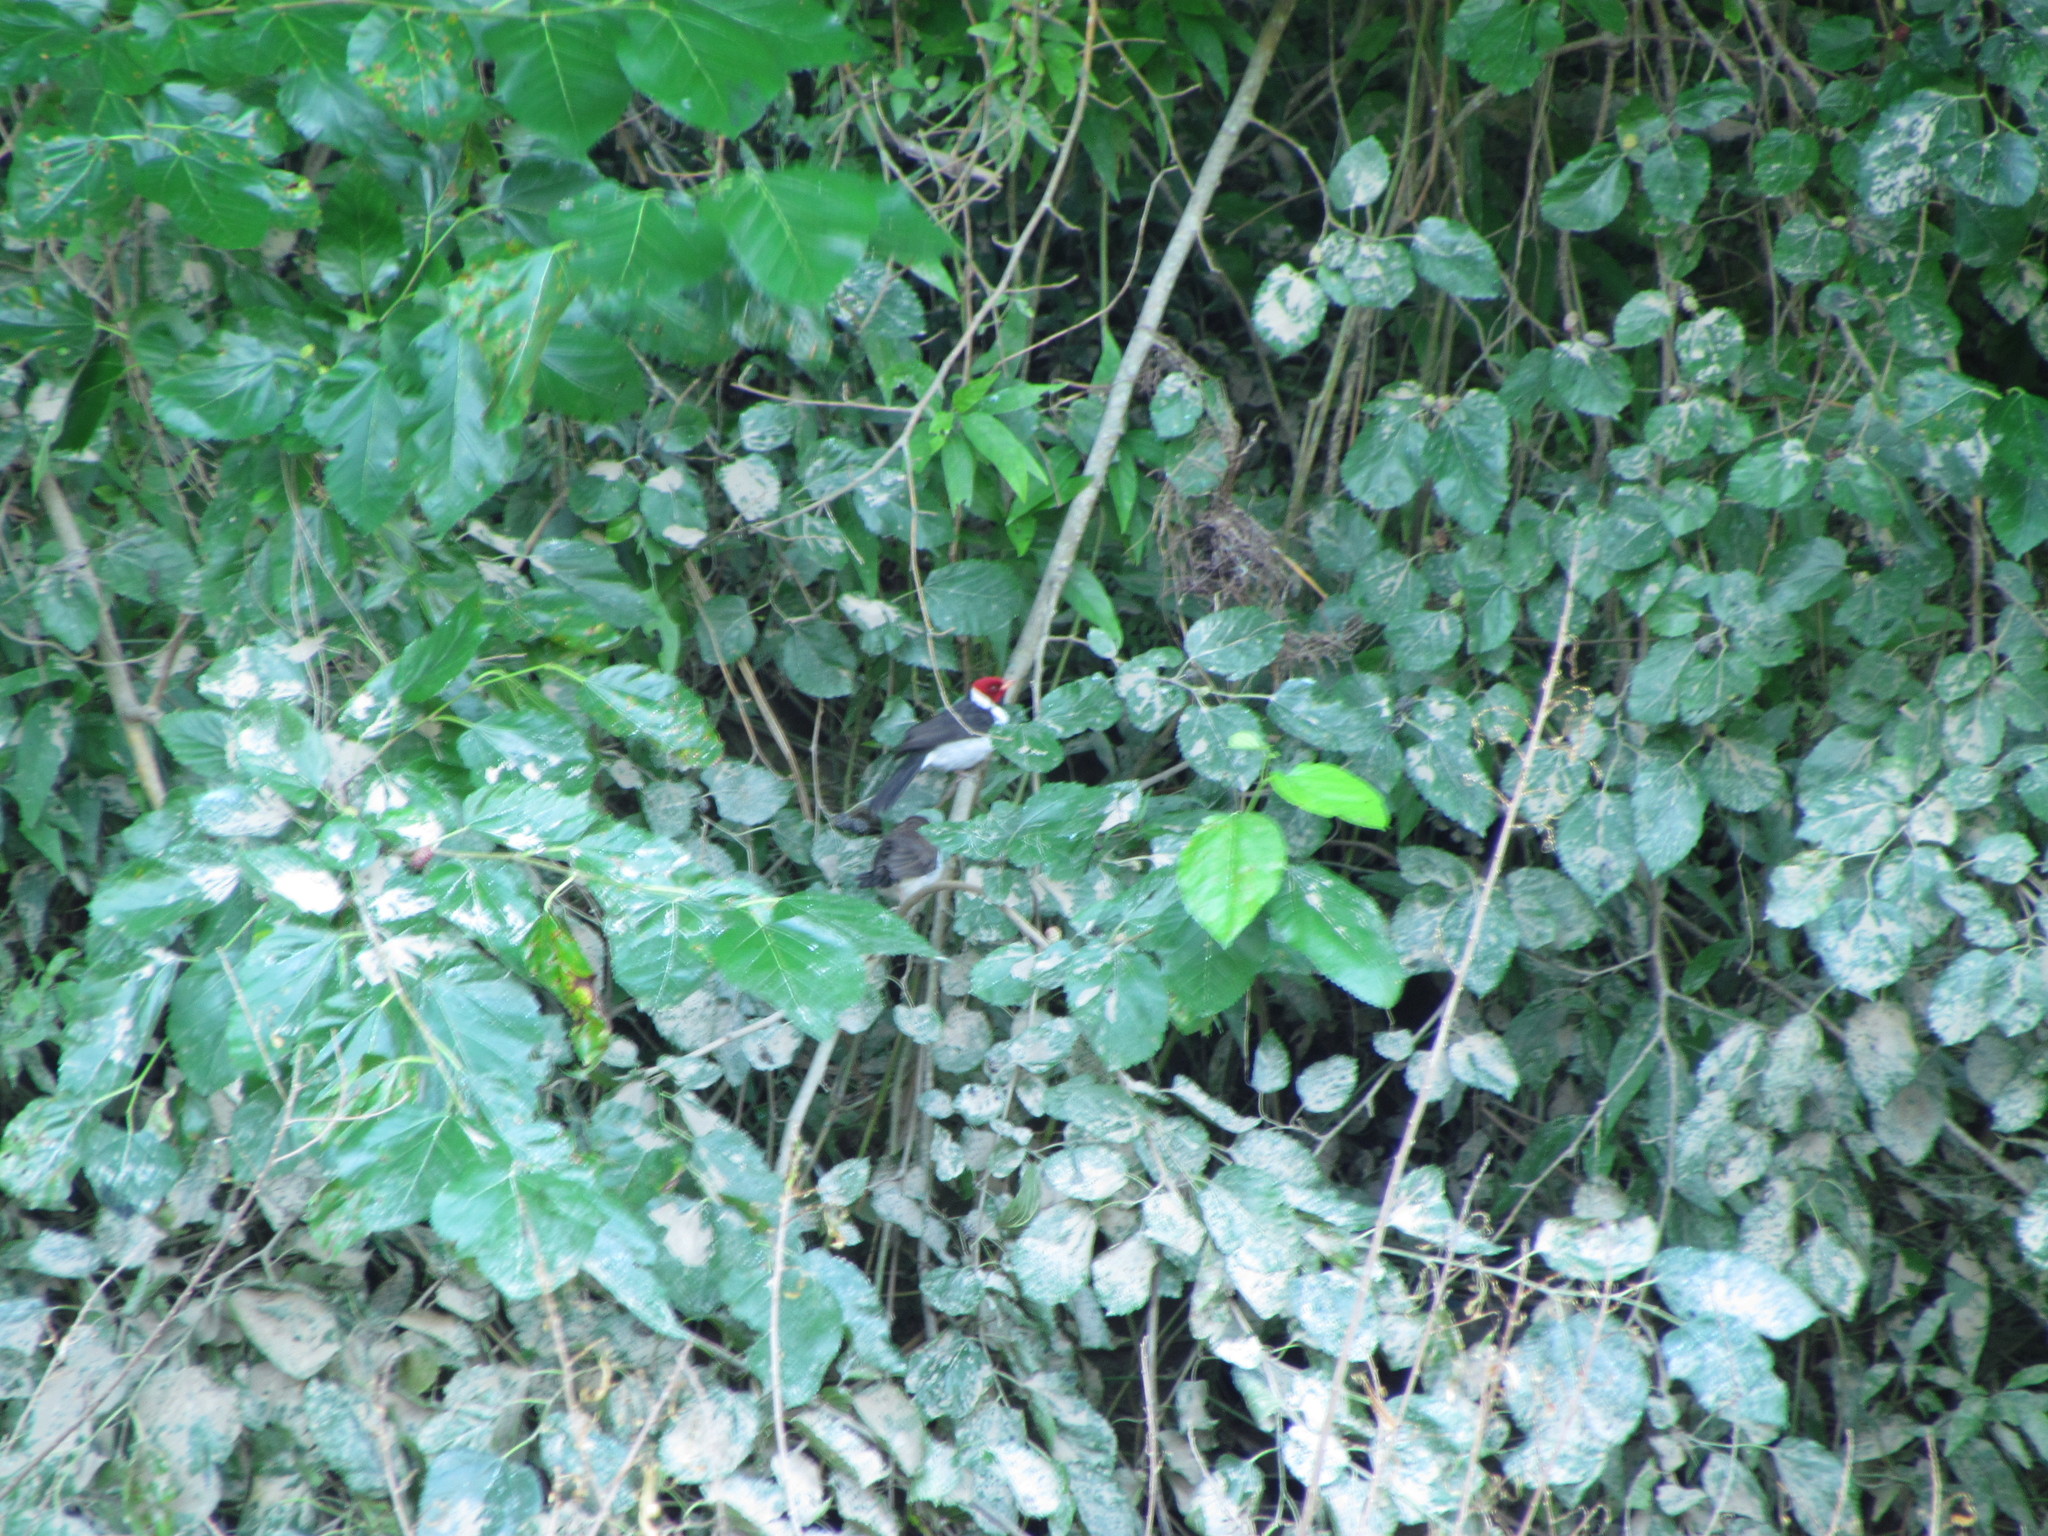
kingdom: Animalia
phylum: Chordata
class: Aves
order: Passeriformes
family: Thraupidae
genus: Paroaria
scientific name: Paroaria capitata
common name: Yellow-billed cardinal
